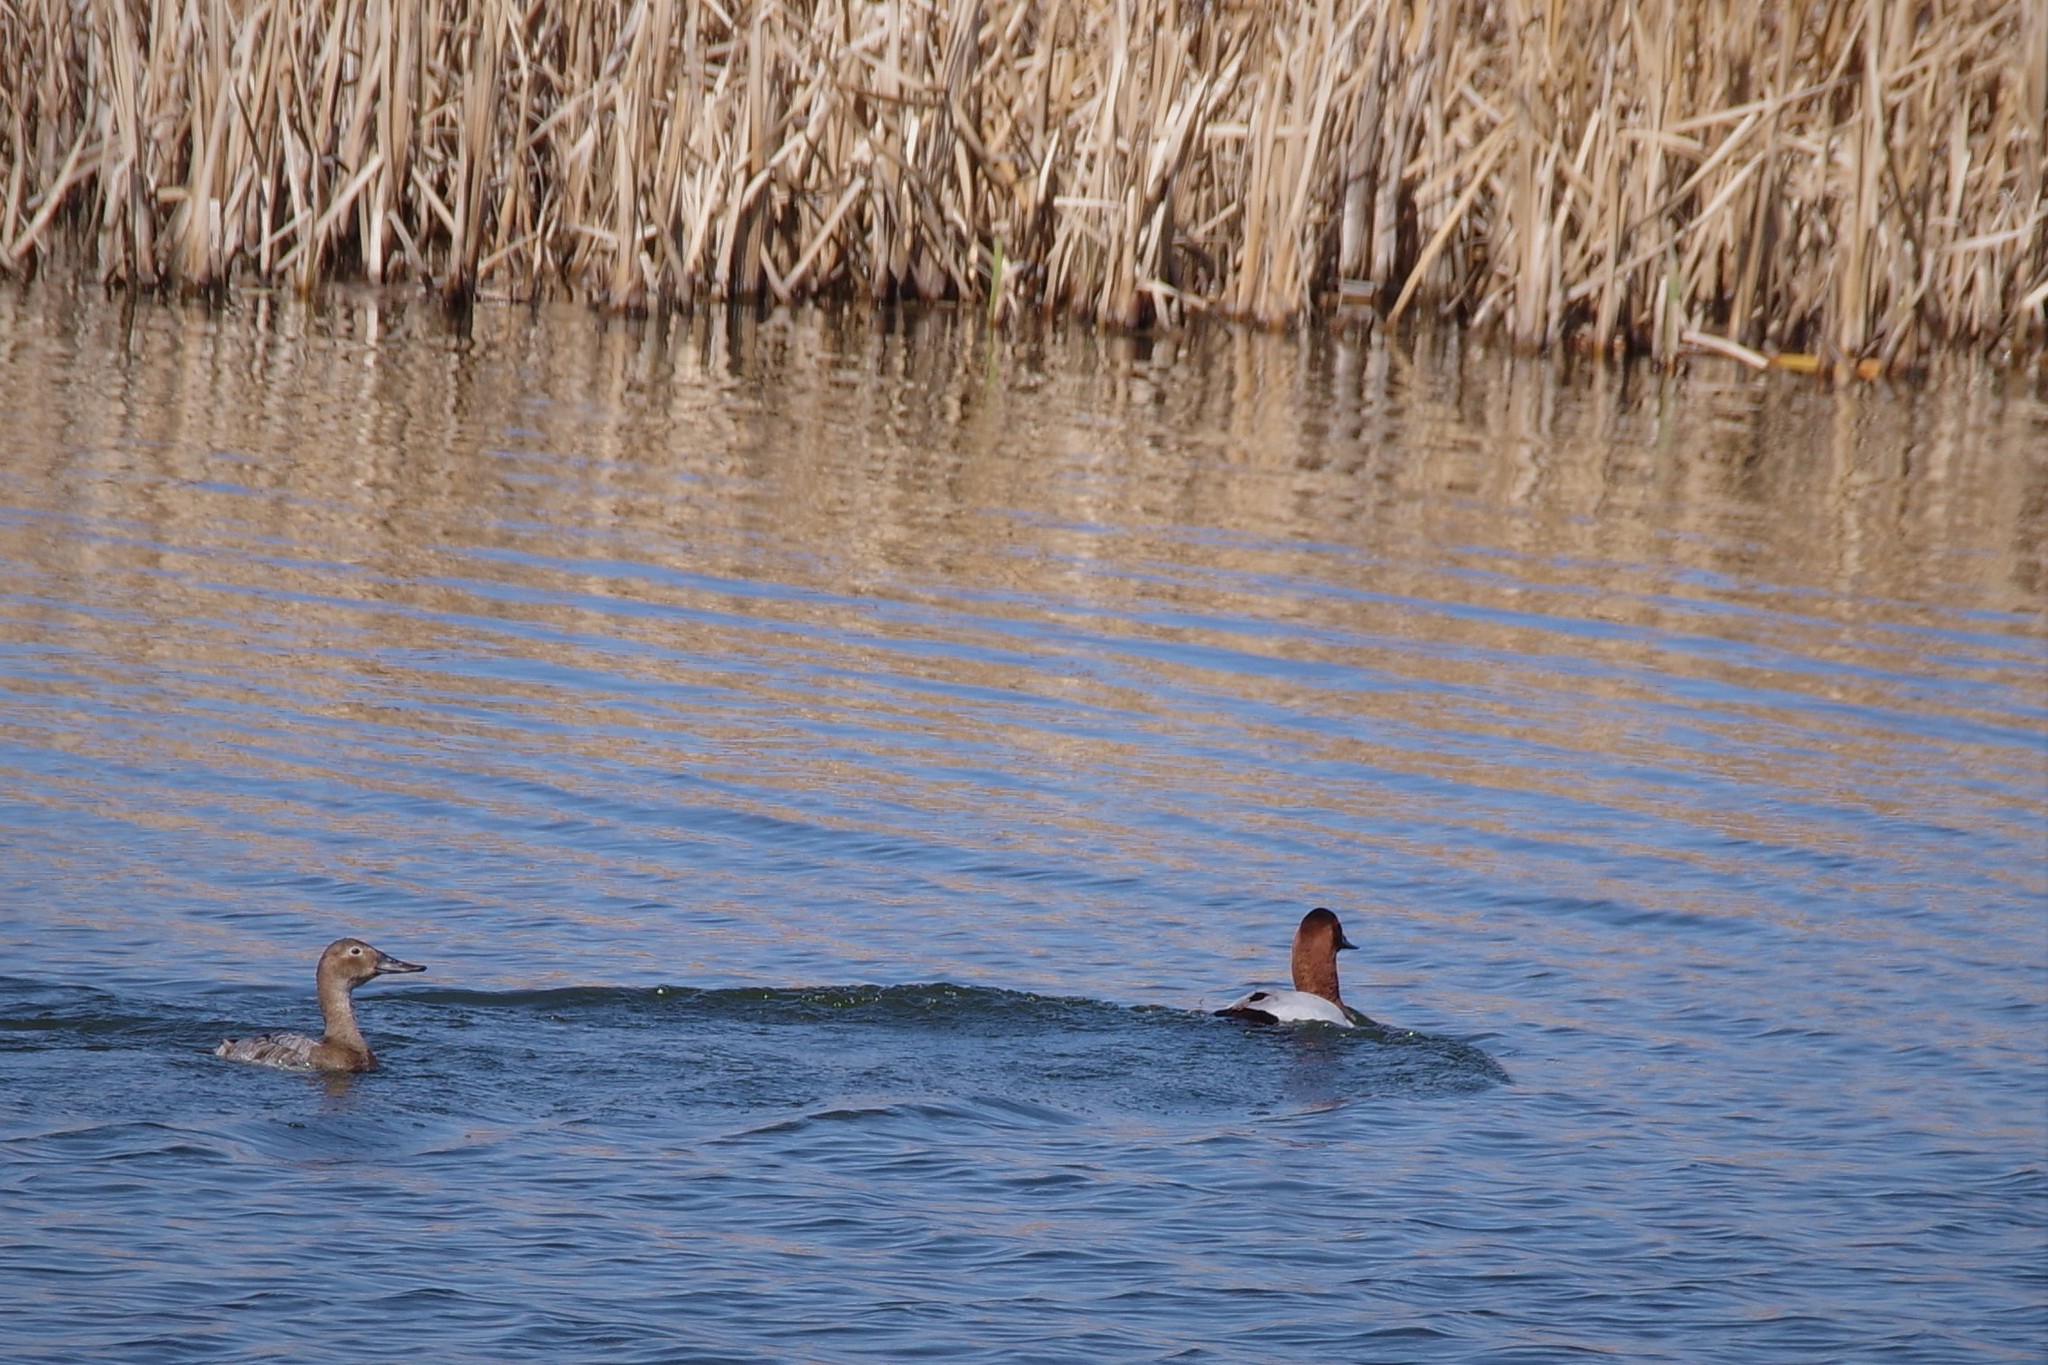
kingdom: Animalia
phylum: Chordata
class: Aves
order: Anseriformes
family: Anatidae
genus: Aythya
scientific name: Aythya valisineria
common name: Canvasback
